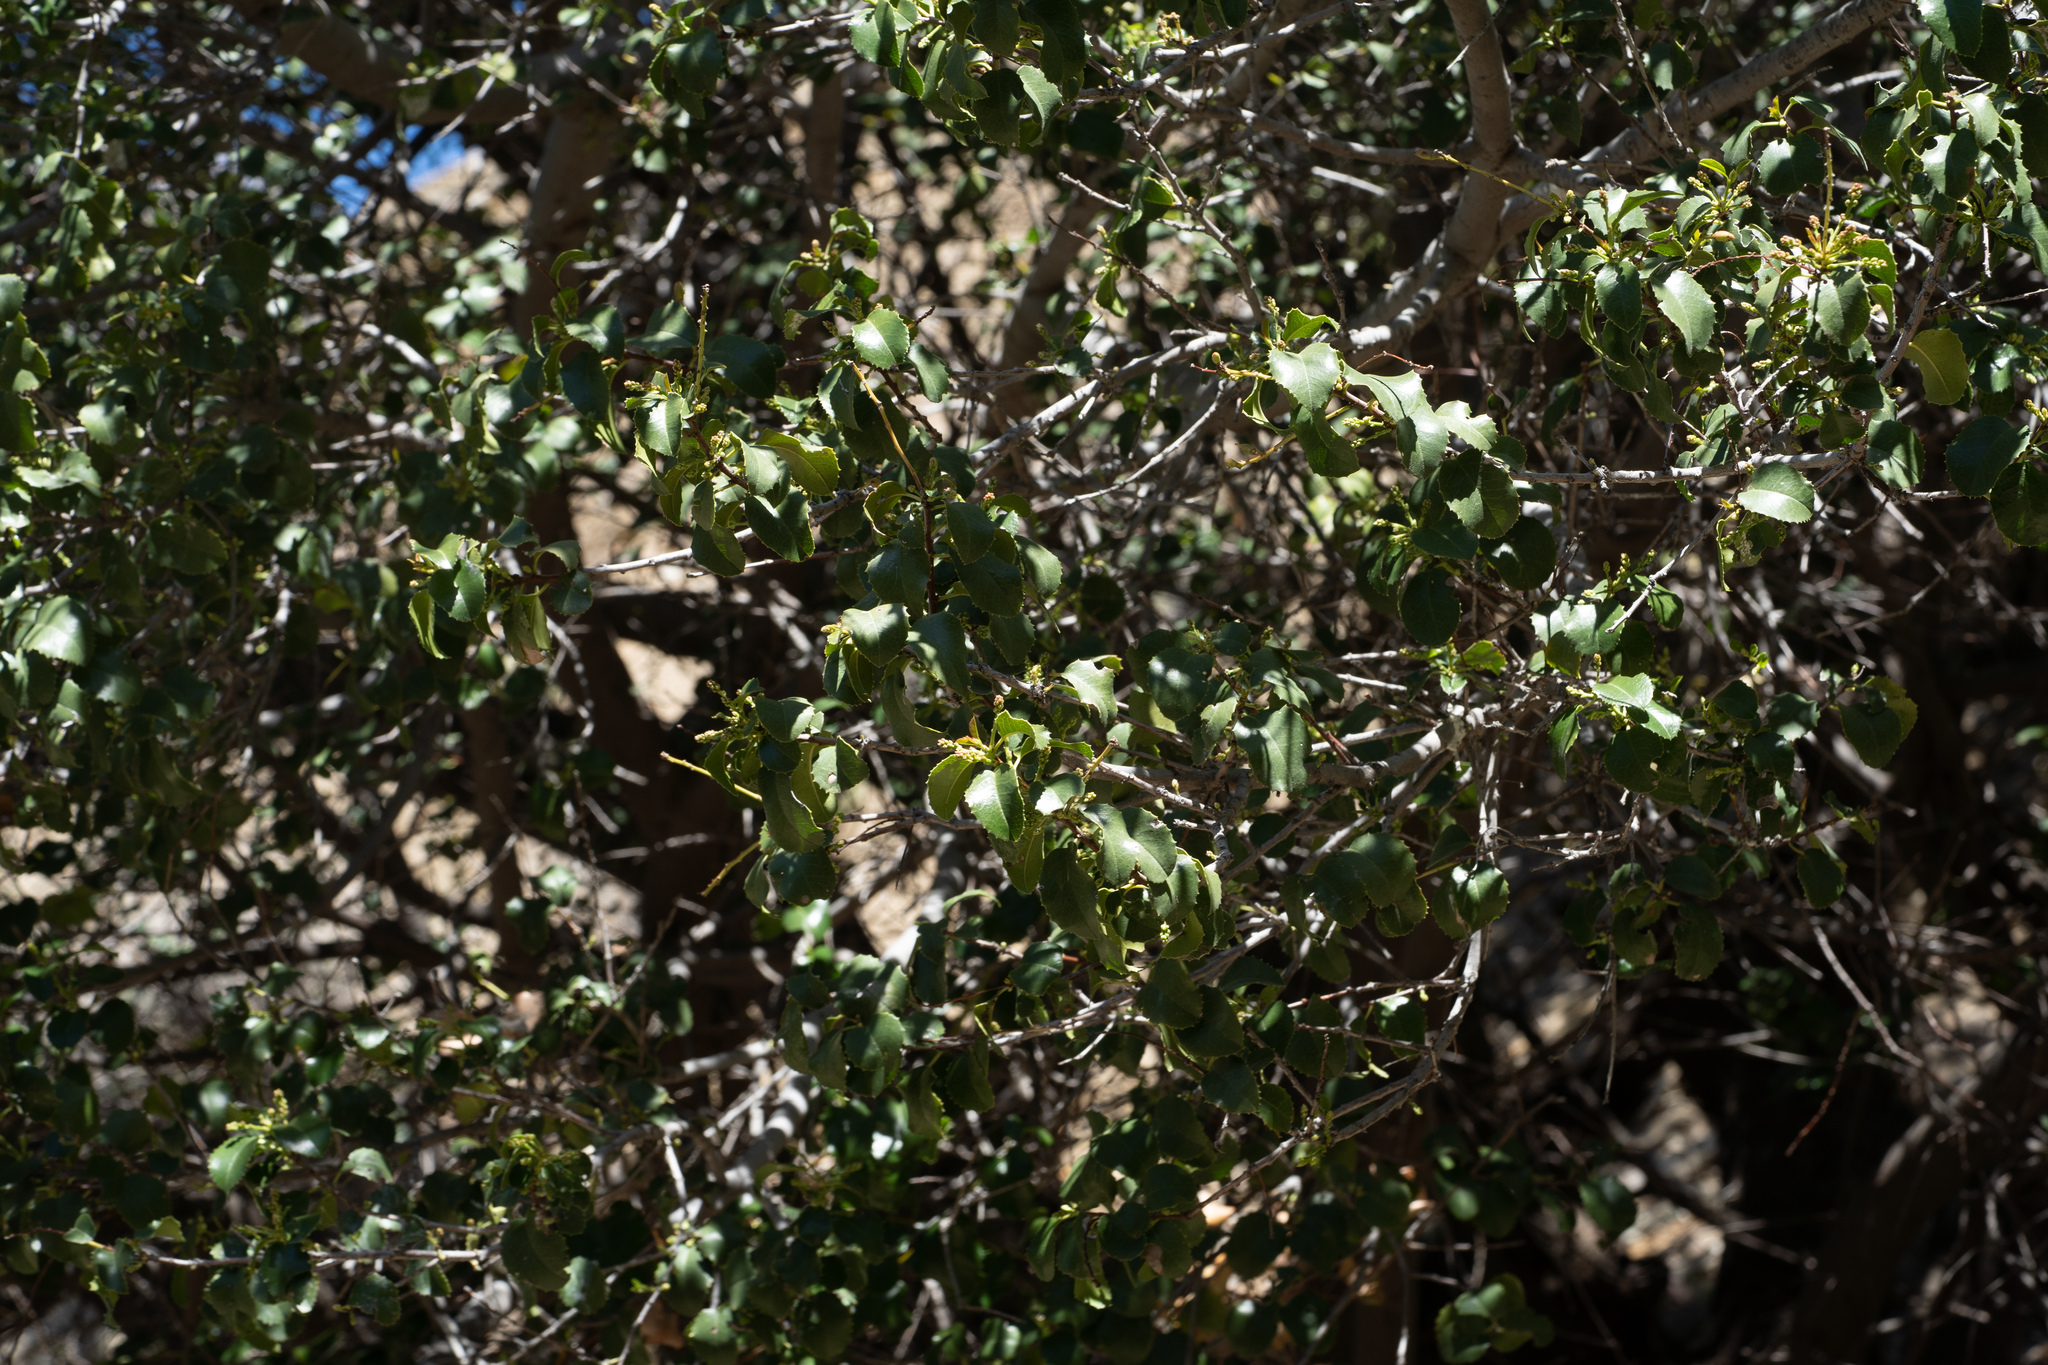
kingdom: Plantae
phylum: Tracheophyta
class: Magnoliopsida
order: Rosales
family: Rosaceae
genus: Prunus
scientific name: Prunus ilicifolia
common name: Hollyleaf cherry
